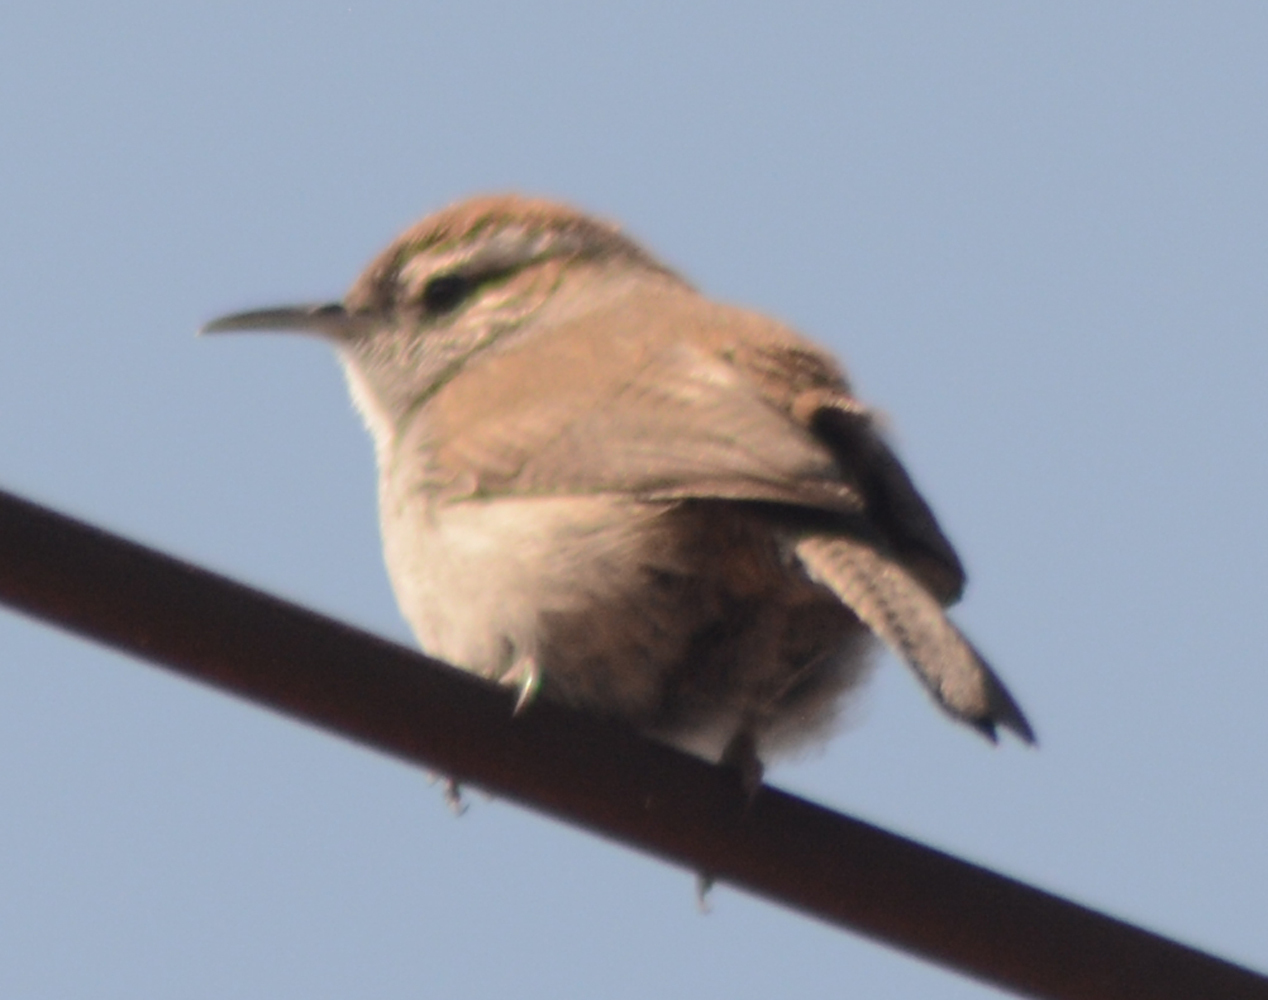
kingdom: Animalia
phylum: Chordata
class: Aves
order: Passeriformes
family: Troglodytidae
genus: Thryomanes
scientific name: Thryomanes bewickii
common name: Bewick's wren
